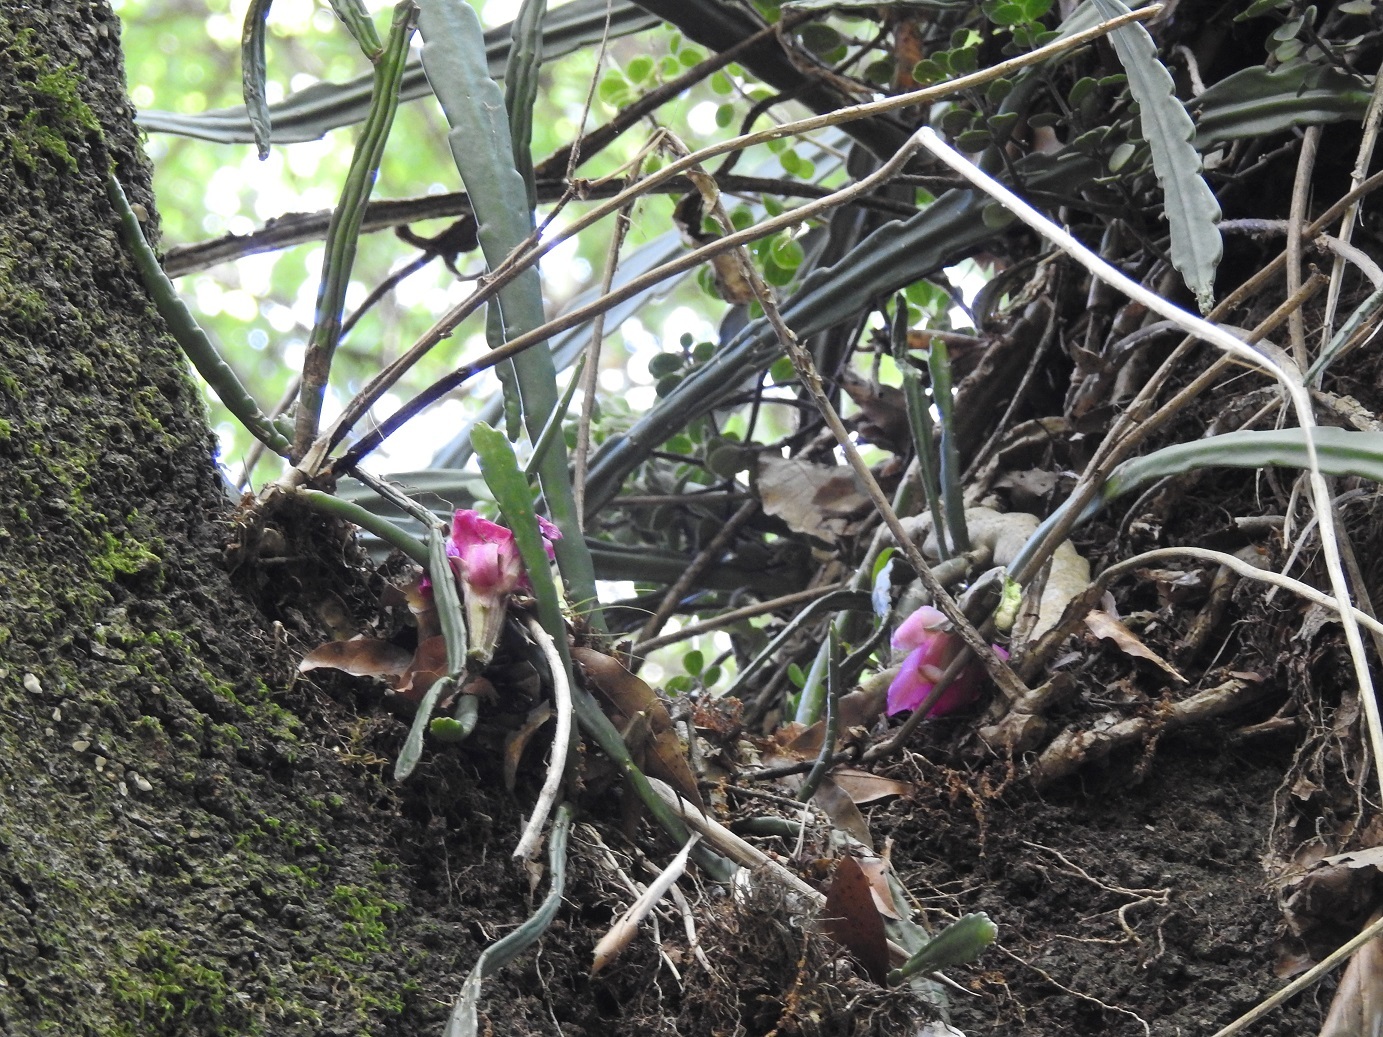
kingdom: Plantae
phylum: Tracheophyta
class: Magnoliopsida
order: Caryophyllales
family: Cactaceae
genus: Disocactus
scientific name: Disocactus macdougallii
